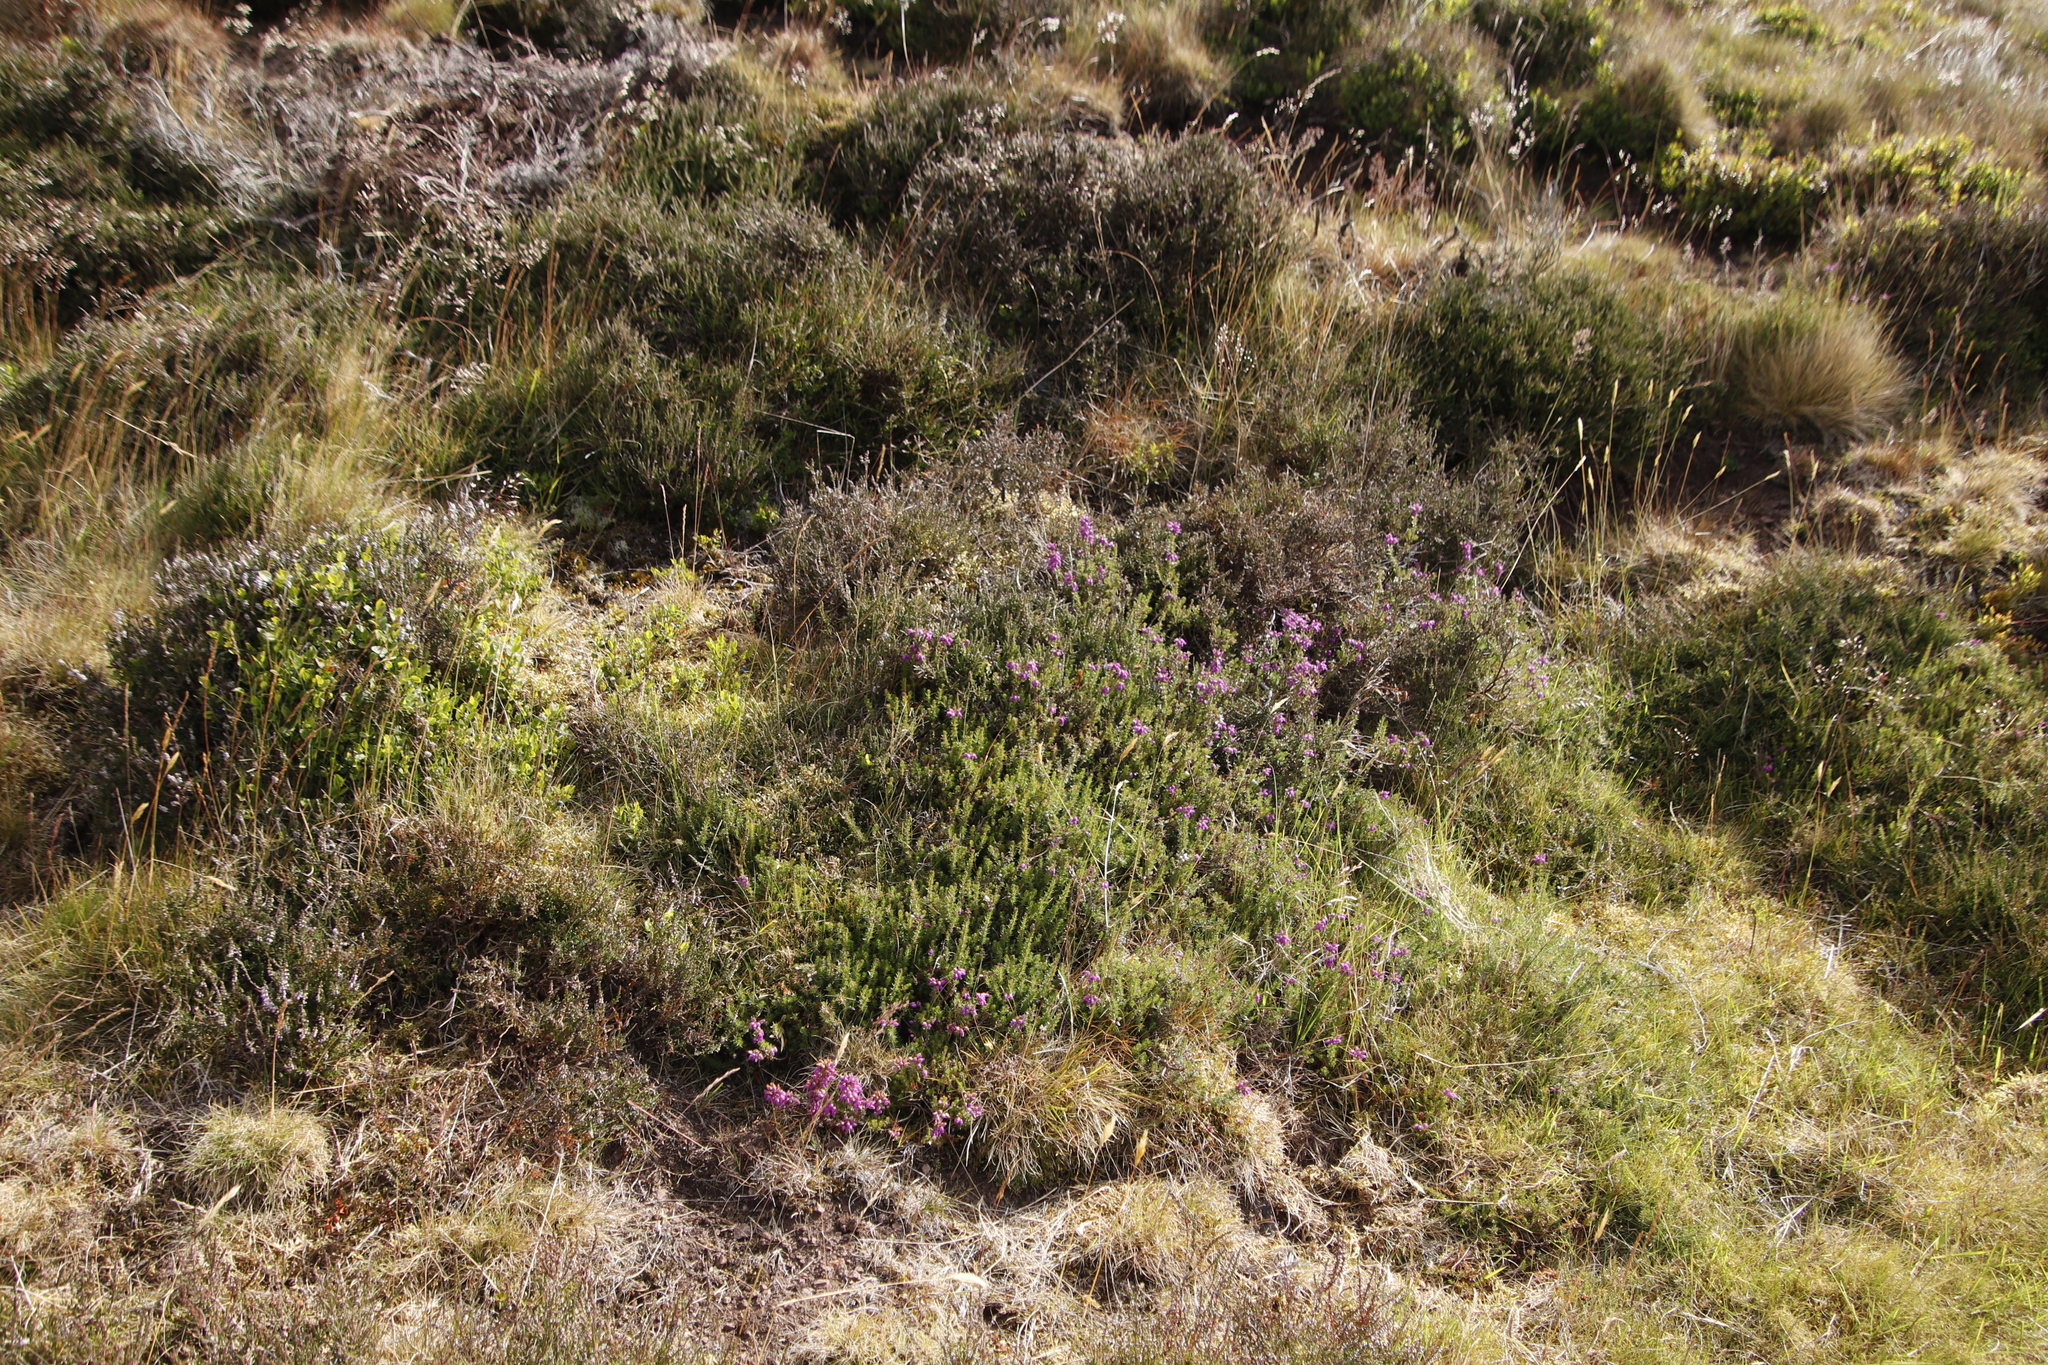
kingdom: Plantae
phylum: Tracheophyta
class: Magnoliopsida
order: Ericales
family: Ericaceae
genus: Erica
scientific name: Erica cinerea
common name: Bell heather
